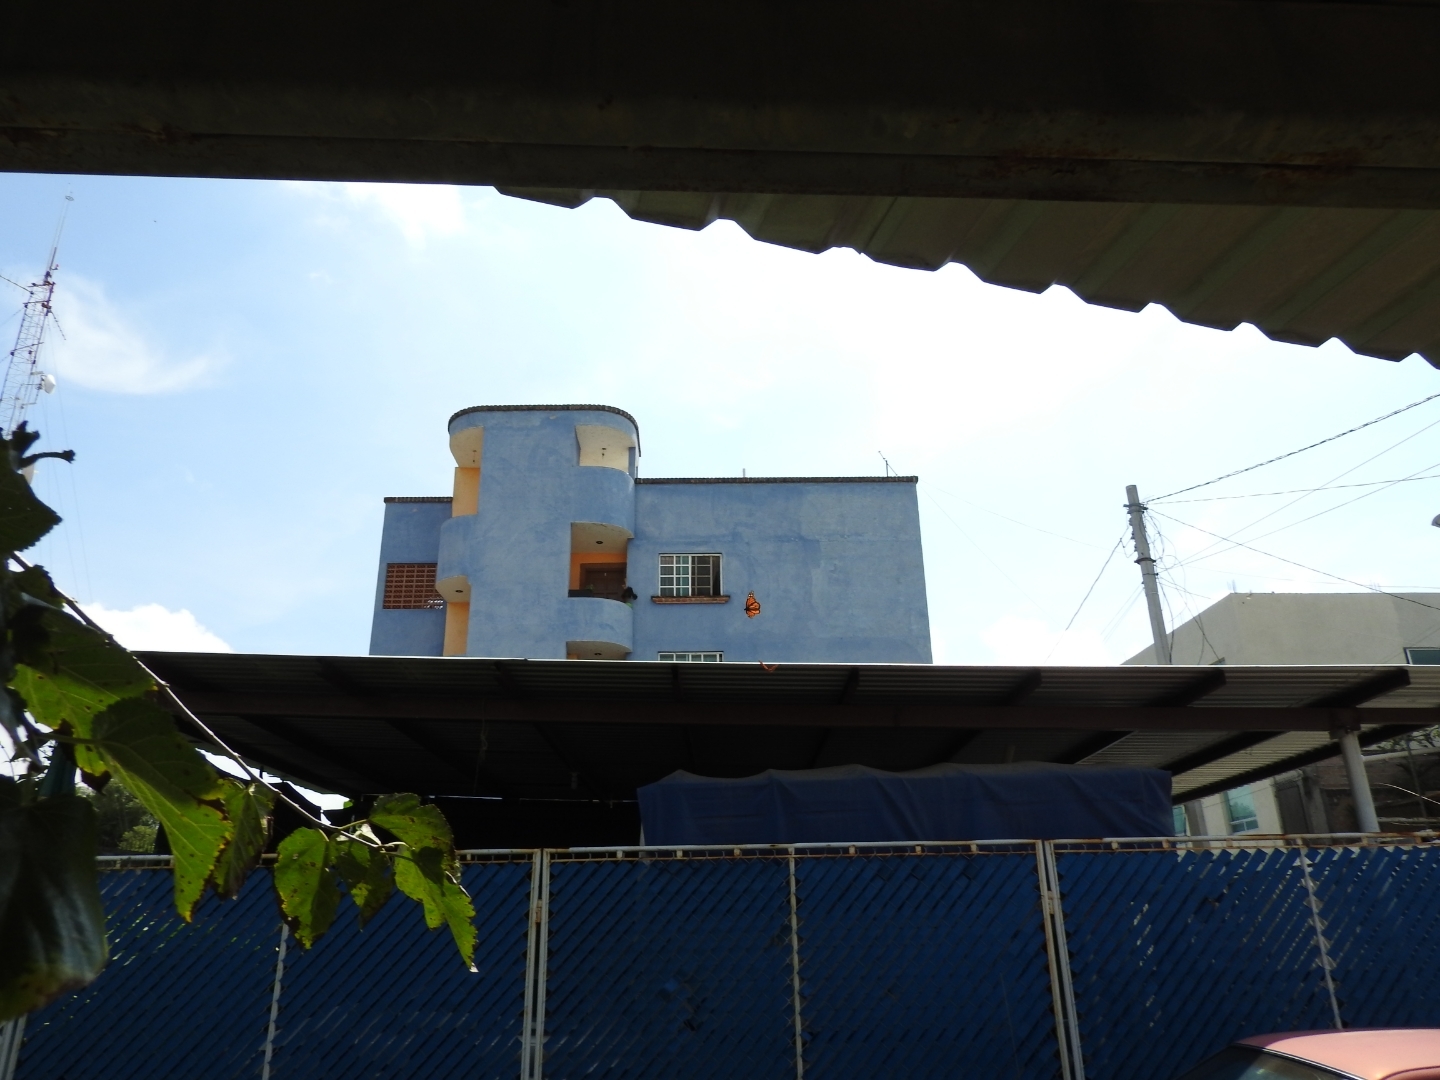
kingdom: Animalia
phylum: Arthropoda
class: Insecta
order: Lepidoptera
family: Nymphalidae
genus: Danaus
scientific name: Danaus plexippus
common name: Monarch
